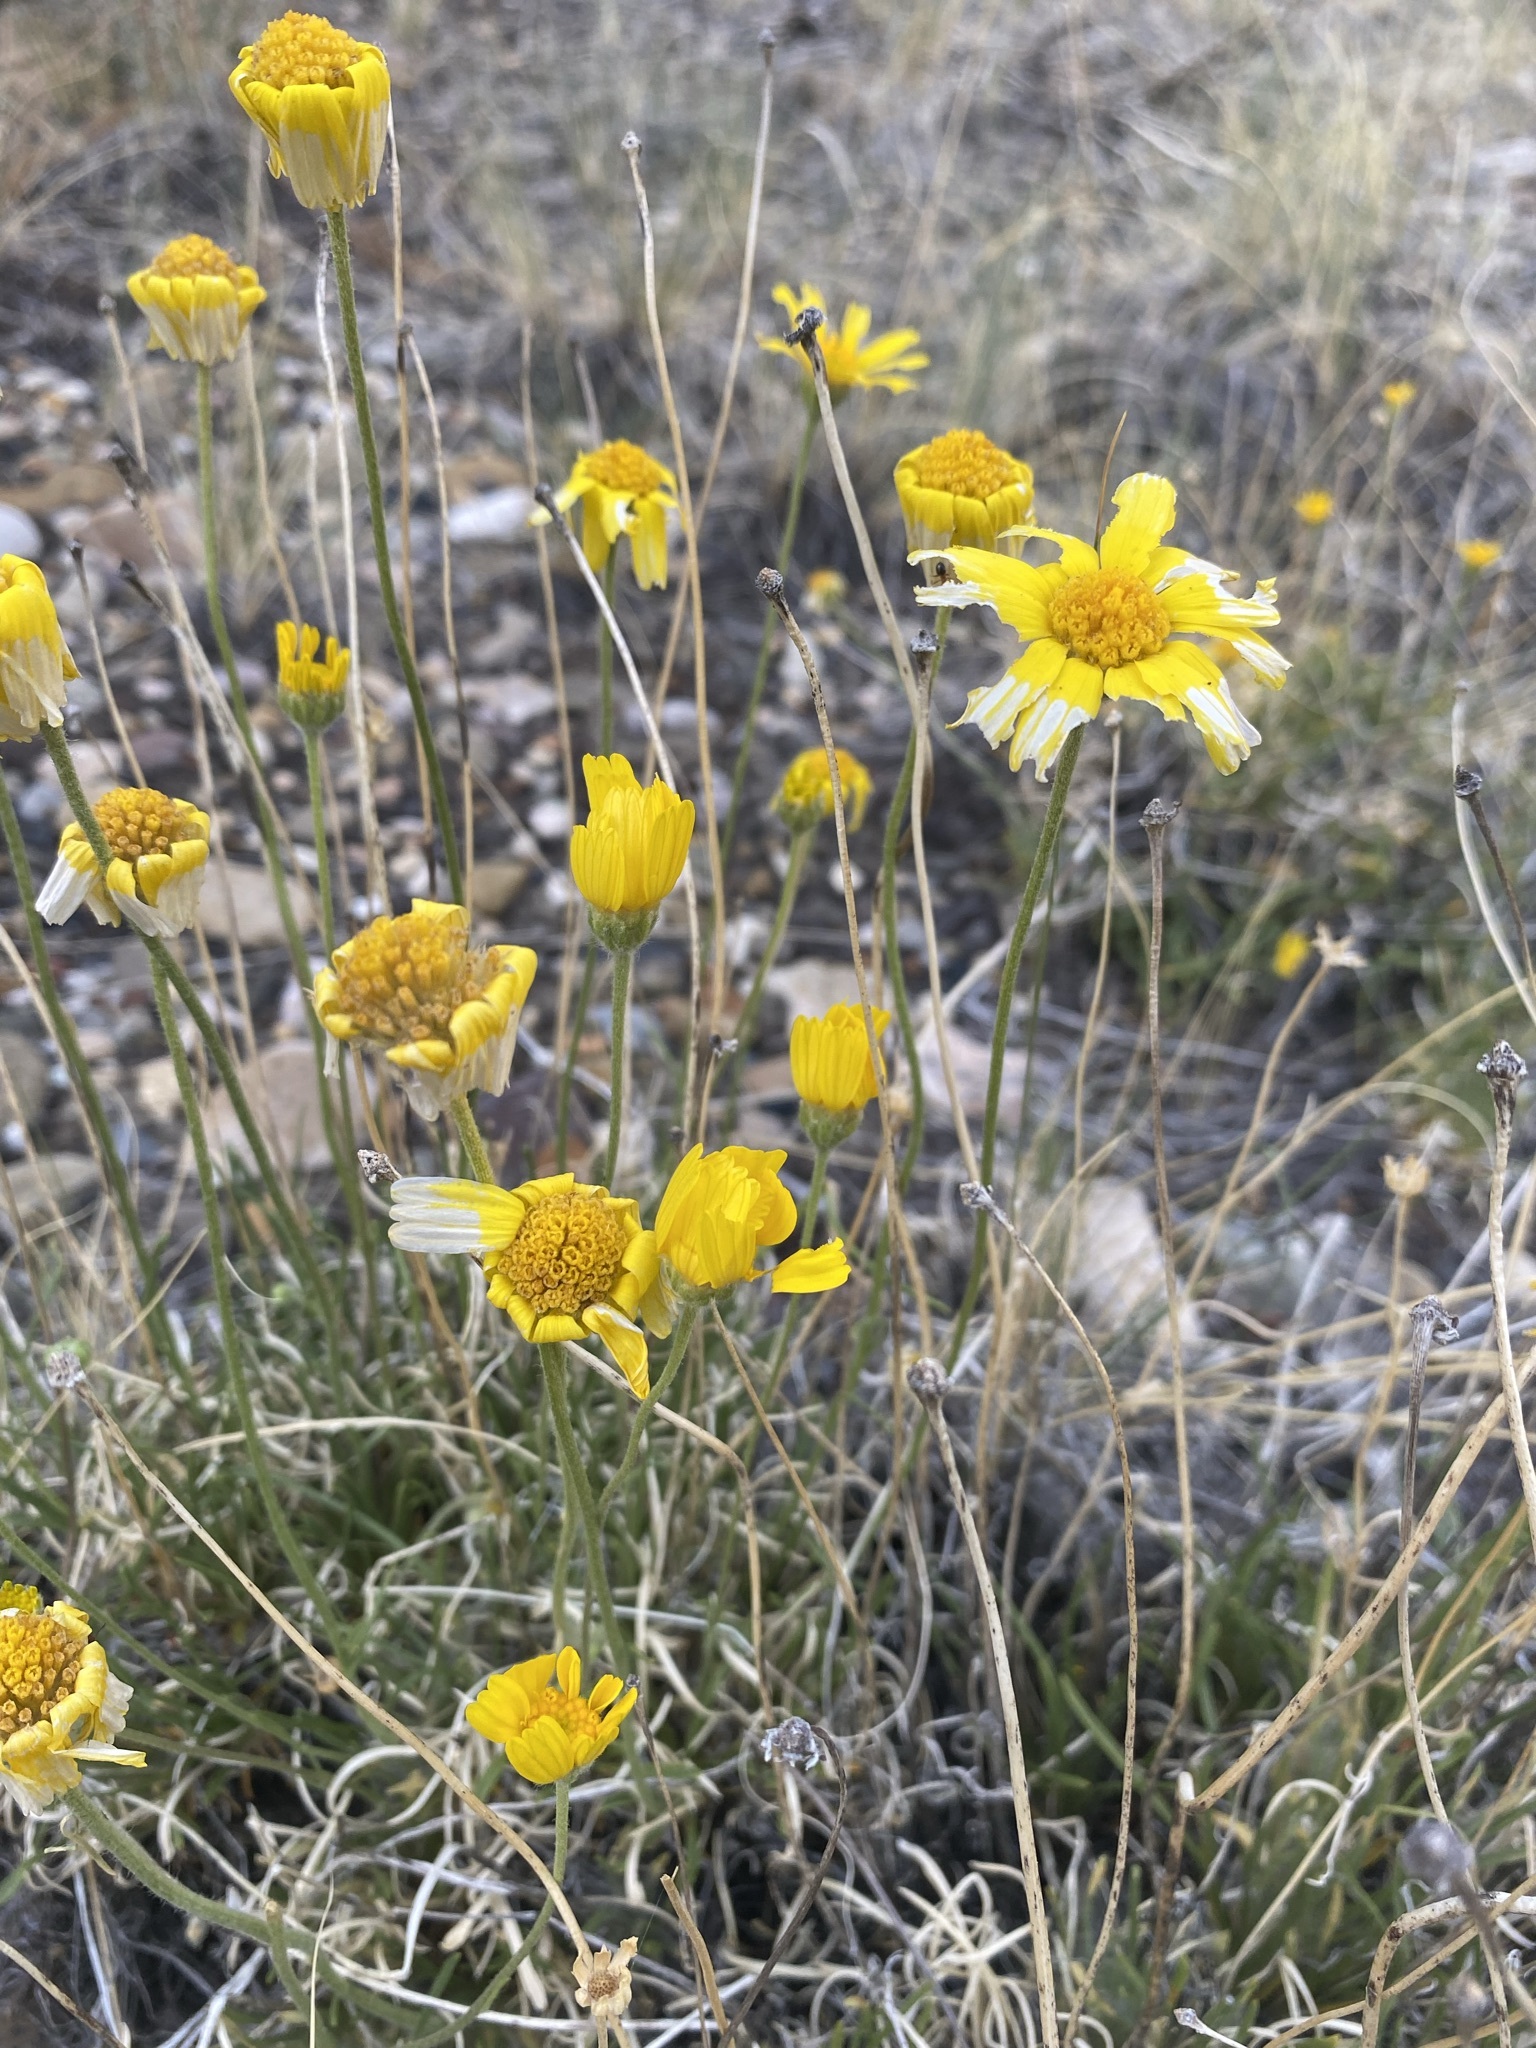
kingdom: Plantae
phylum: Tracheophyta
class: Magnoliopsida
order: Asterales
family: Asteraceae
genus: Tetraneuris
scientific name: Tetraneuris acaulis
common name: Butte marigold
